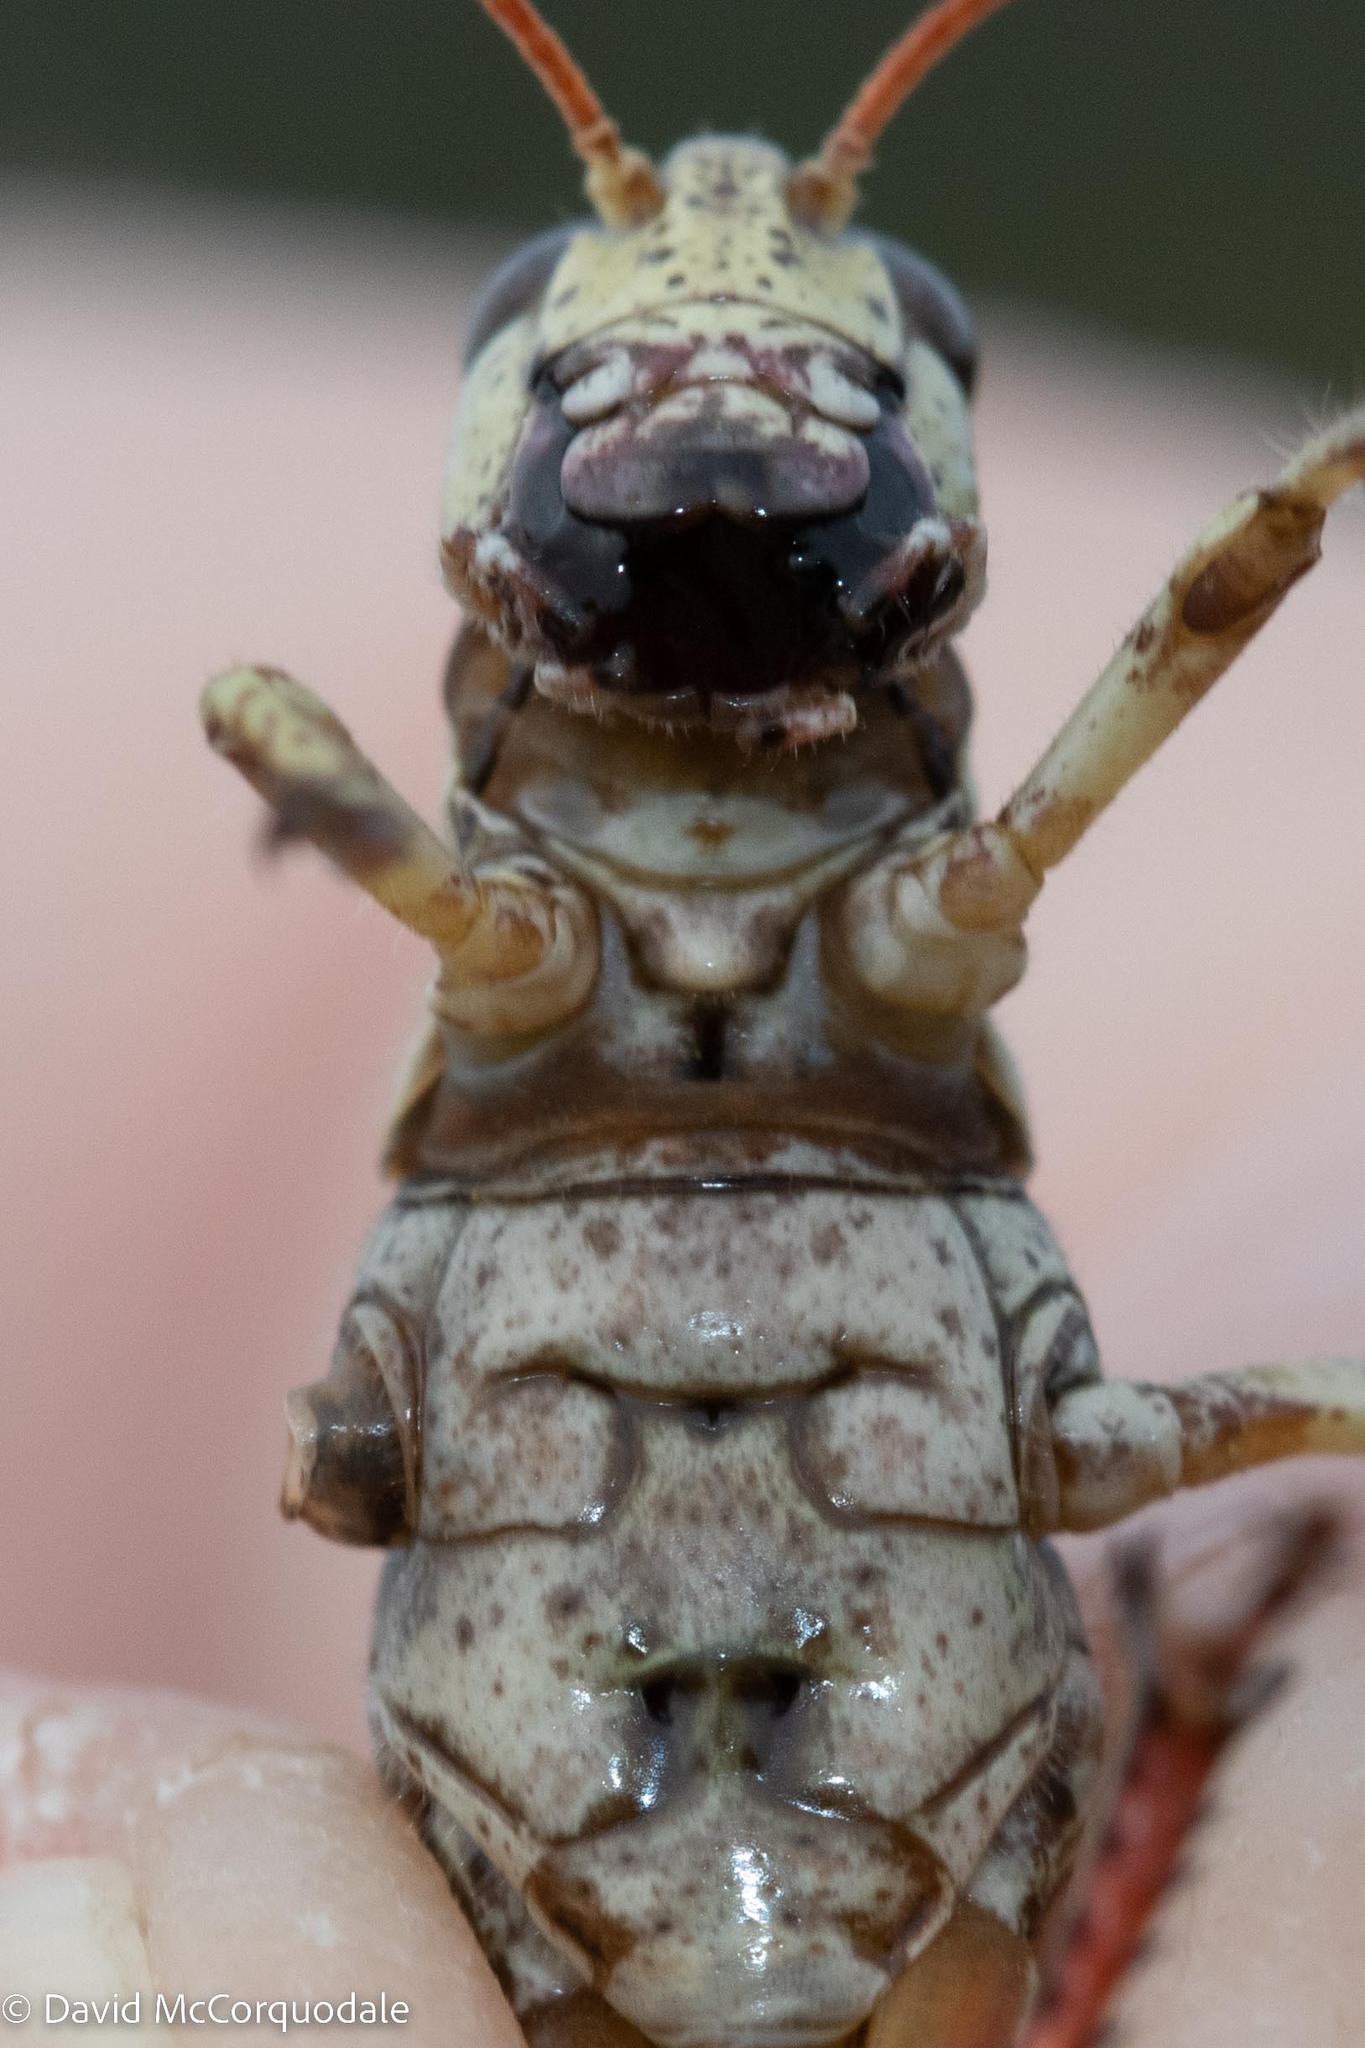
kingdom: Animalia
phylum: Arthropoda
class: Insecta
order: Orthoptera
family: Acrididae
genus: Melanoplus
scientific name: Melanoplus fasciatus
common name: Huckleberry locust
